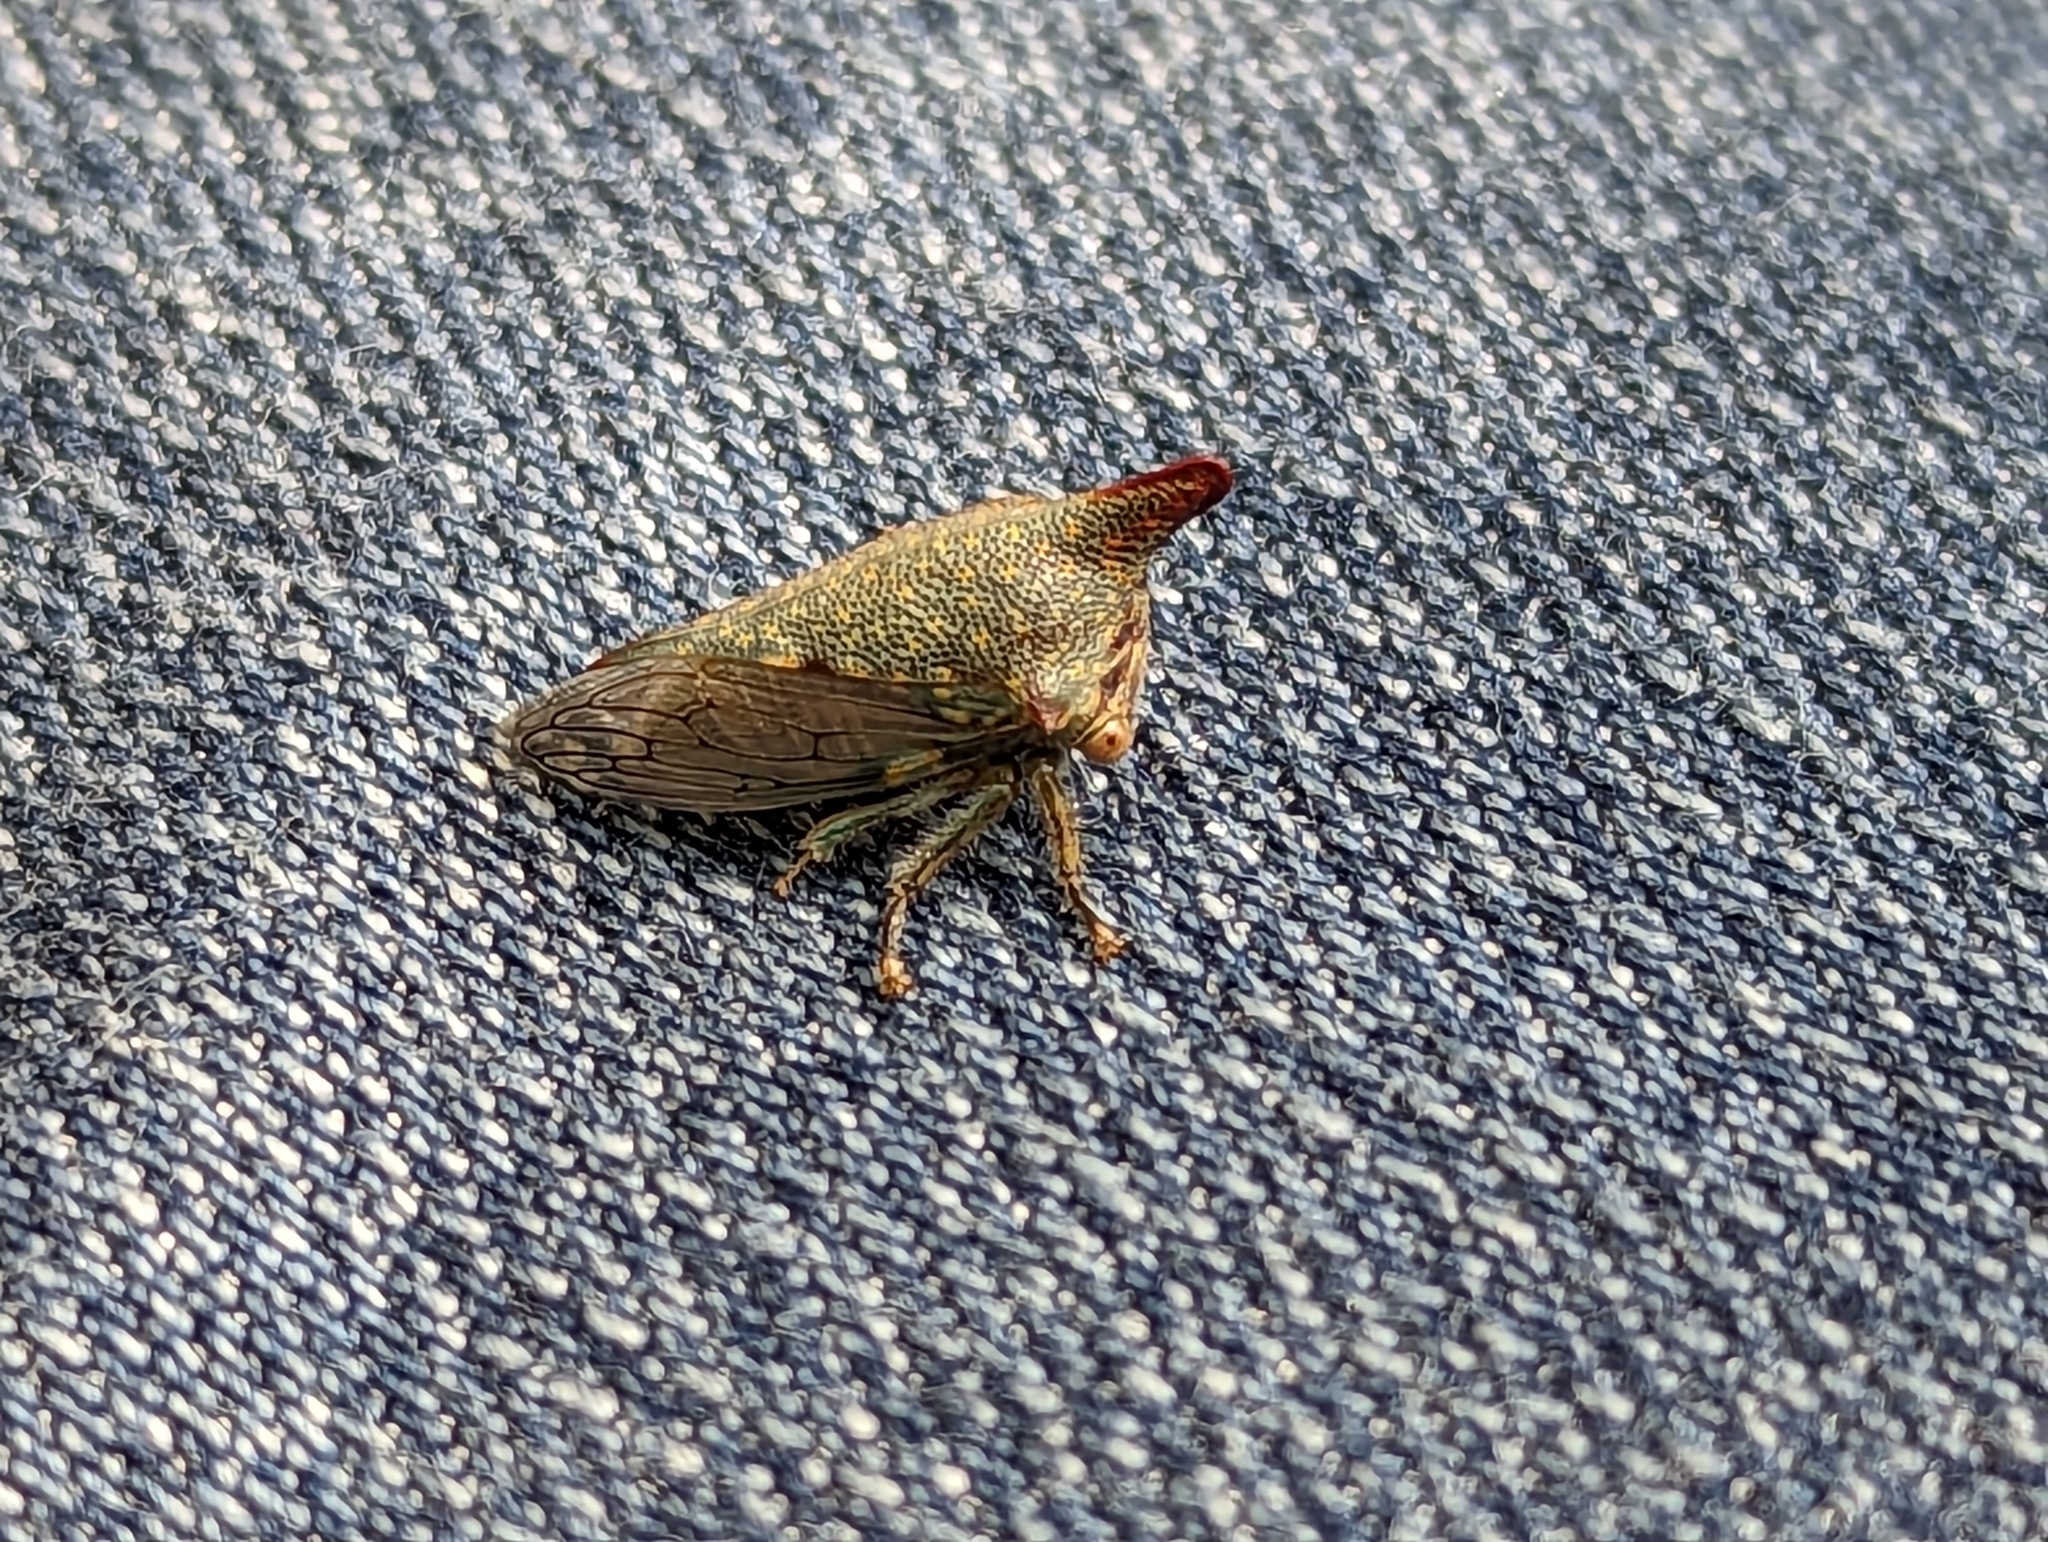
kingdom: Animalia
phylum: Arthropoda
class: Insecta
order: Hemiptera
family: Membracidae
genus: Platycotis
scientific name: Platycotis vittatus
